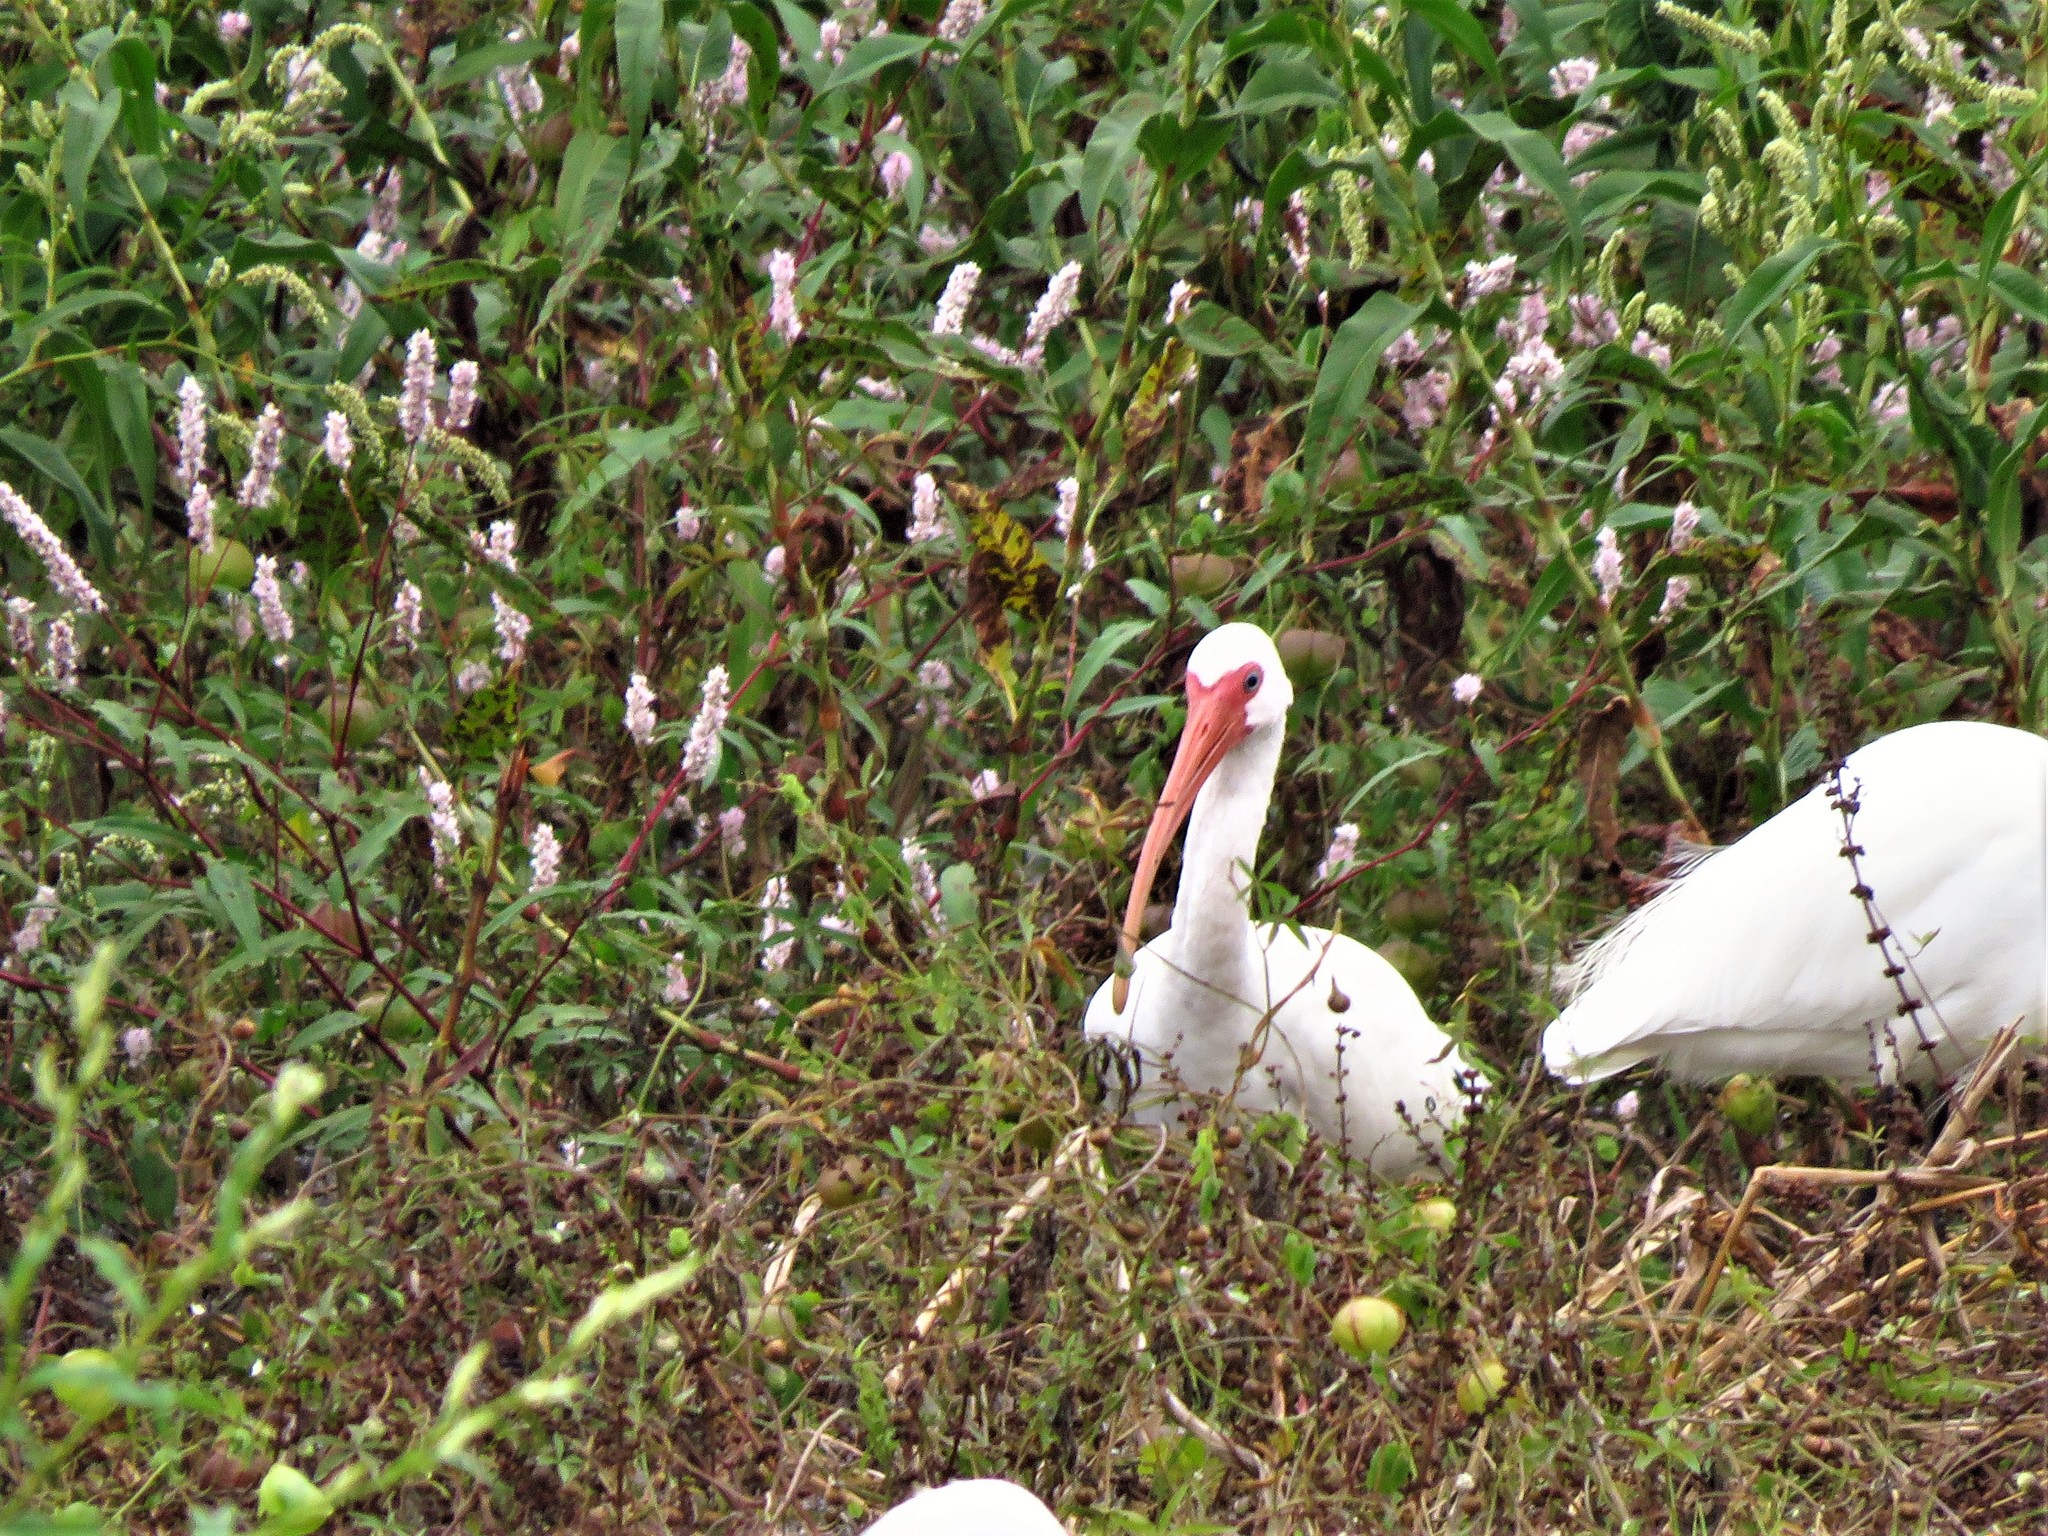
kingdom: Animalia
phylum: Chordata
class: Aves
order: Pelecaniformes
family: Threskiornithidae
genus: Eudocimus
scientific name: Eudocimus albus
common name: White ibis
